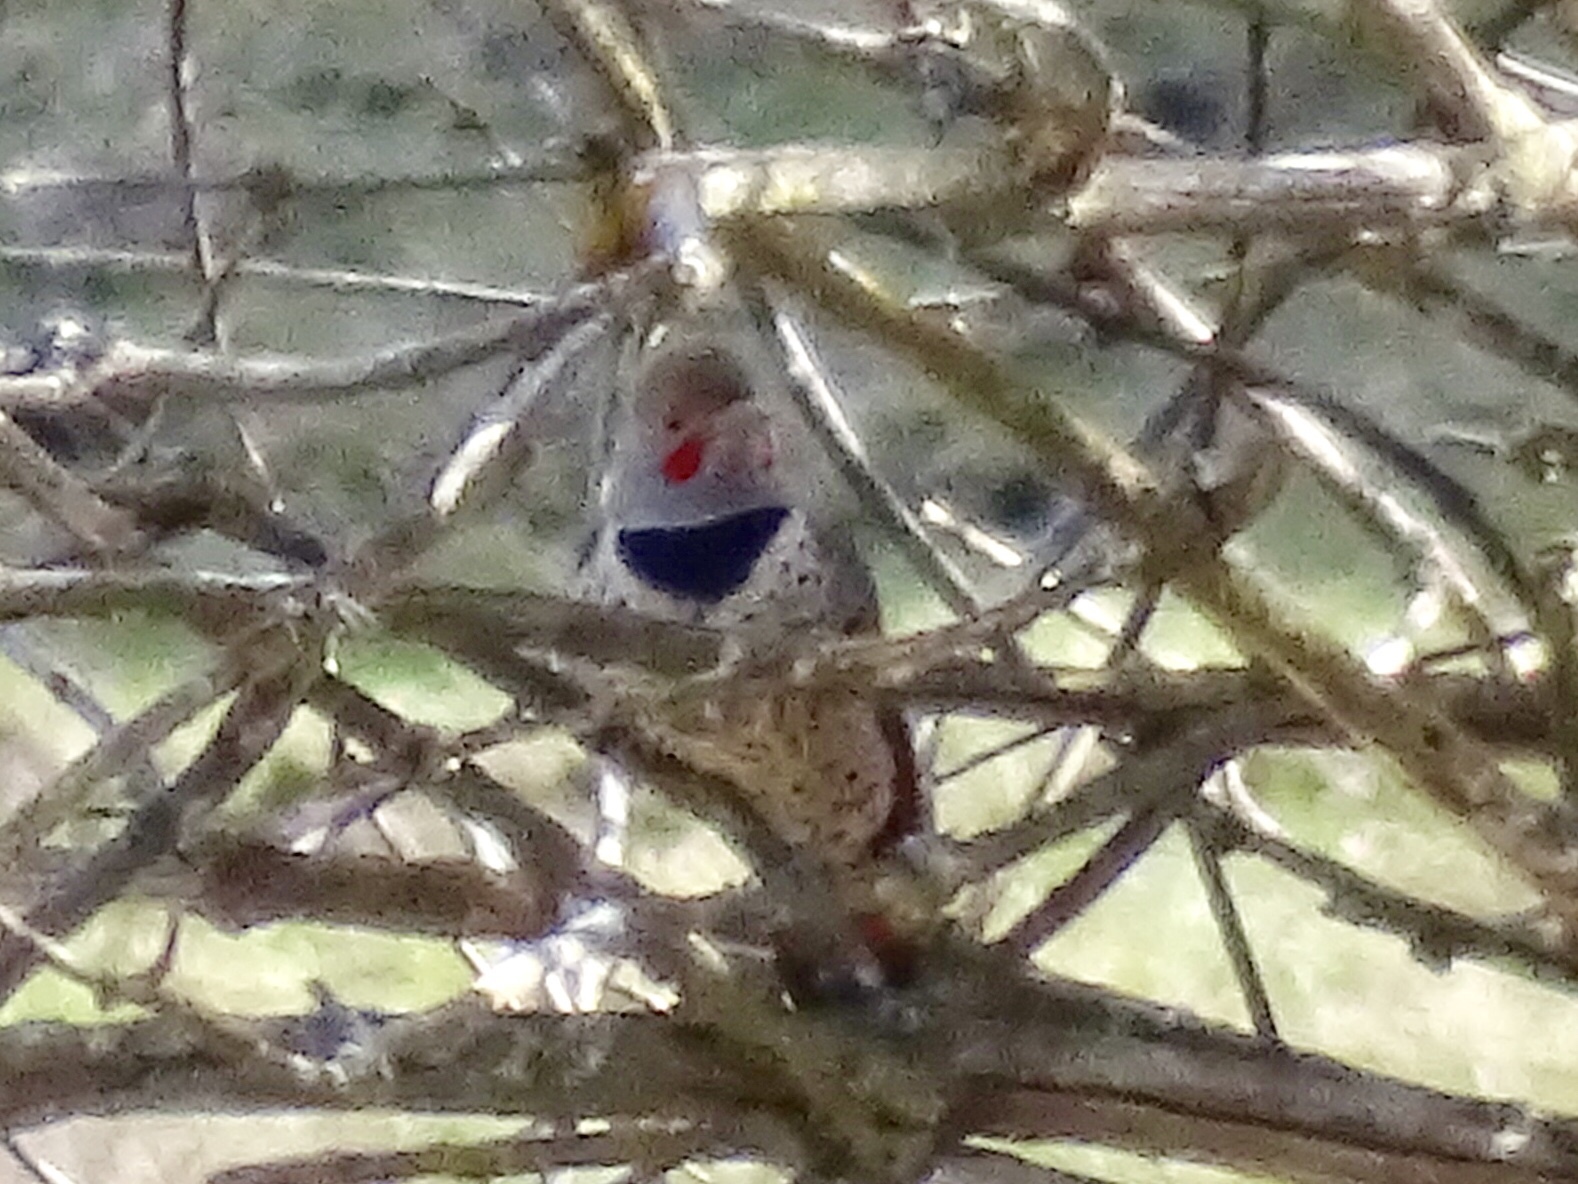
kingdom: Animalia
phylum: Chordata
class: Aves
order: Piciformes
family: Picidae
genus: Colaptes
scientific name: Colaptes auratus
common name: Northern flicker
